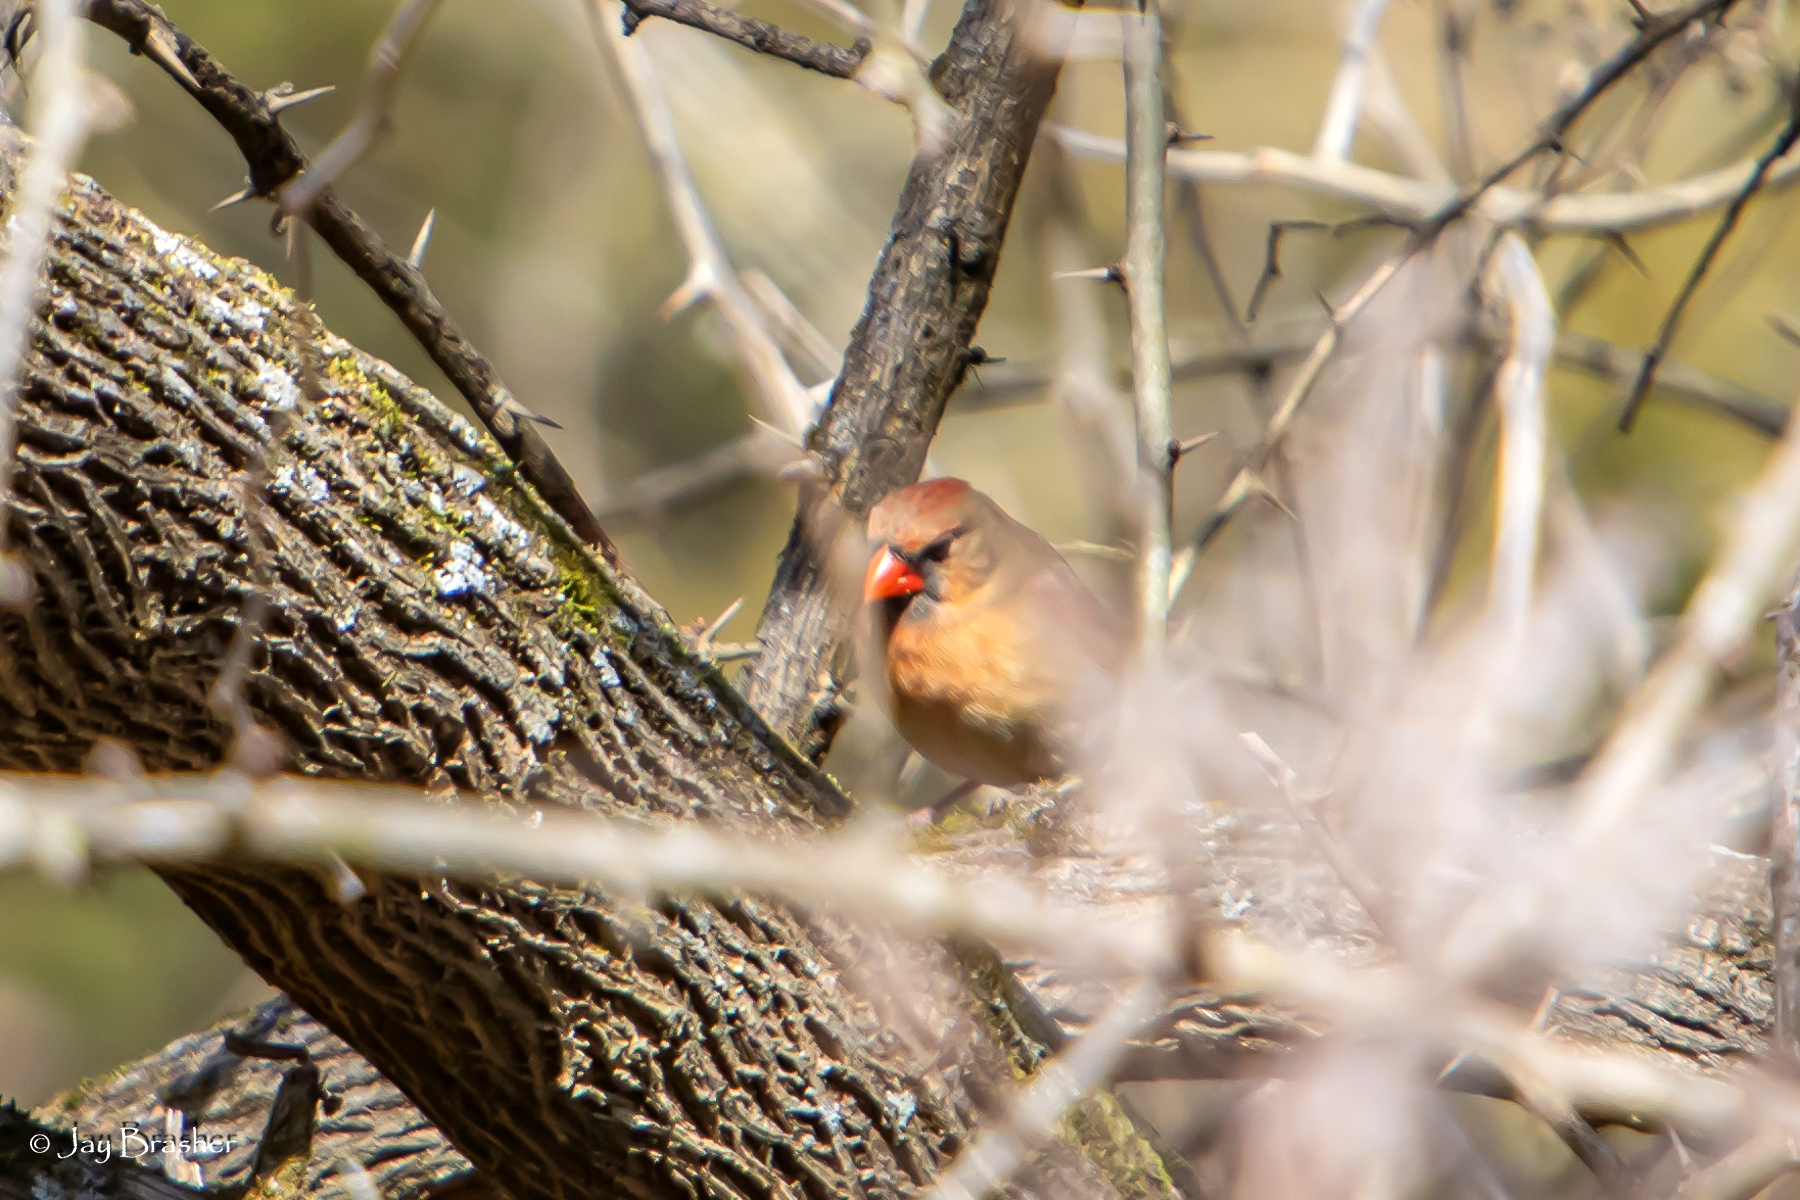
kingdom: Animalia
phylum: Chordata
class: Aves
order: Passeriformes
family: Cardinalidae
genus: Cardinalis
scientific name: Cardinalis cardinalis
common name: Northern cardinal
